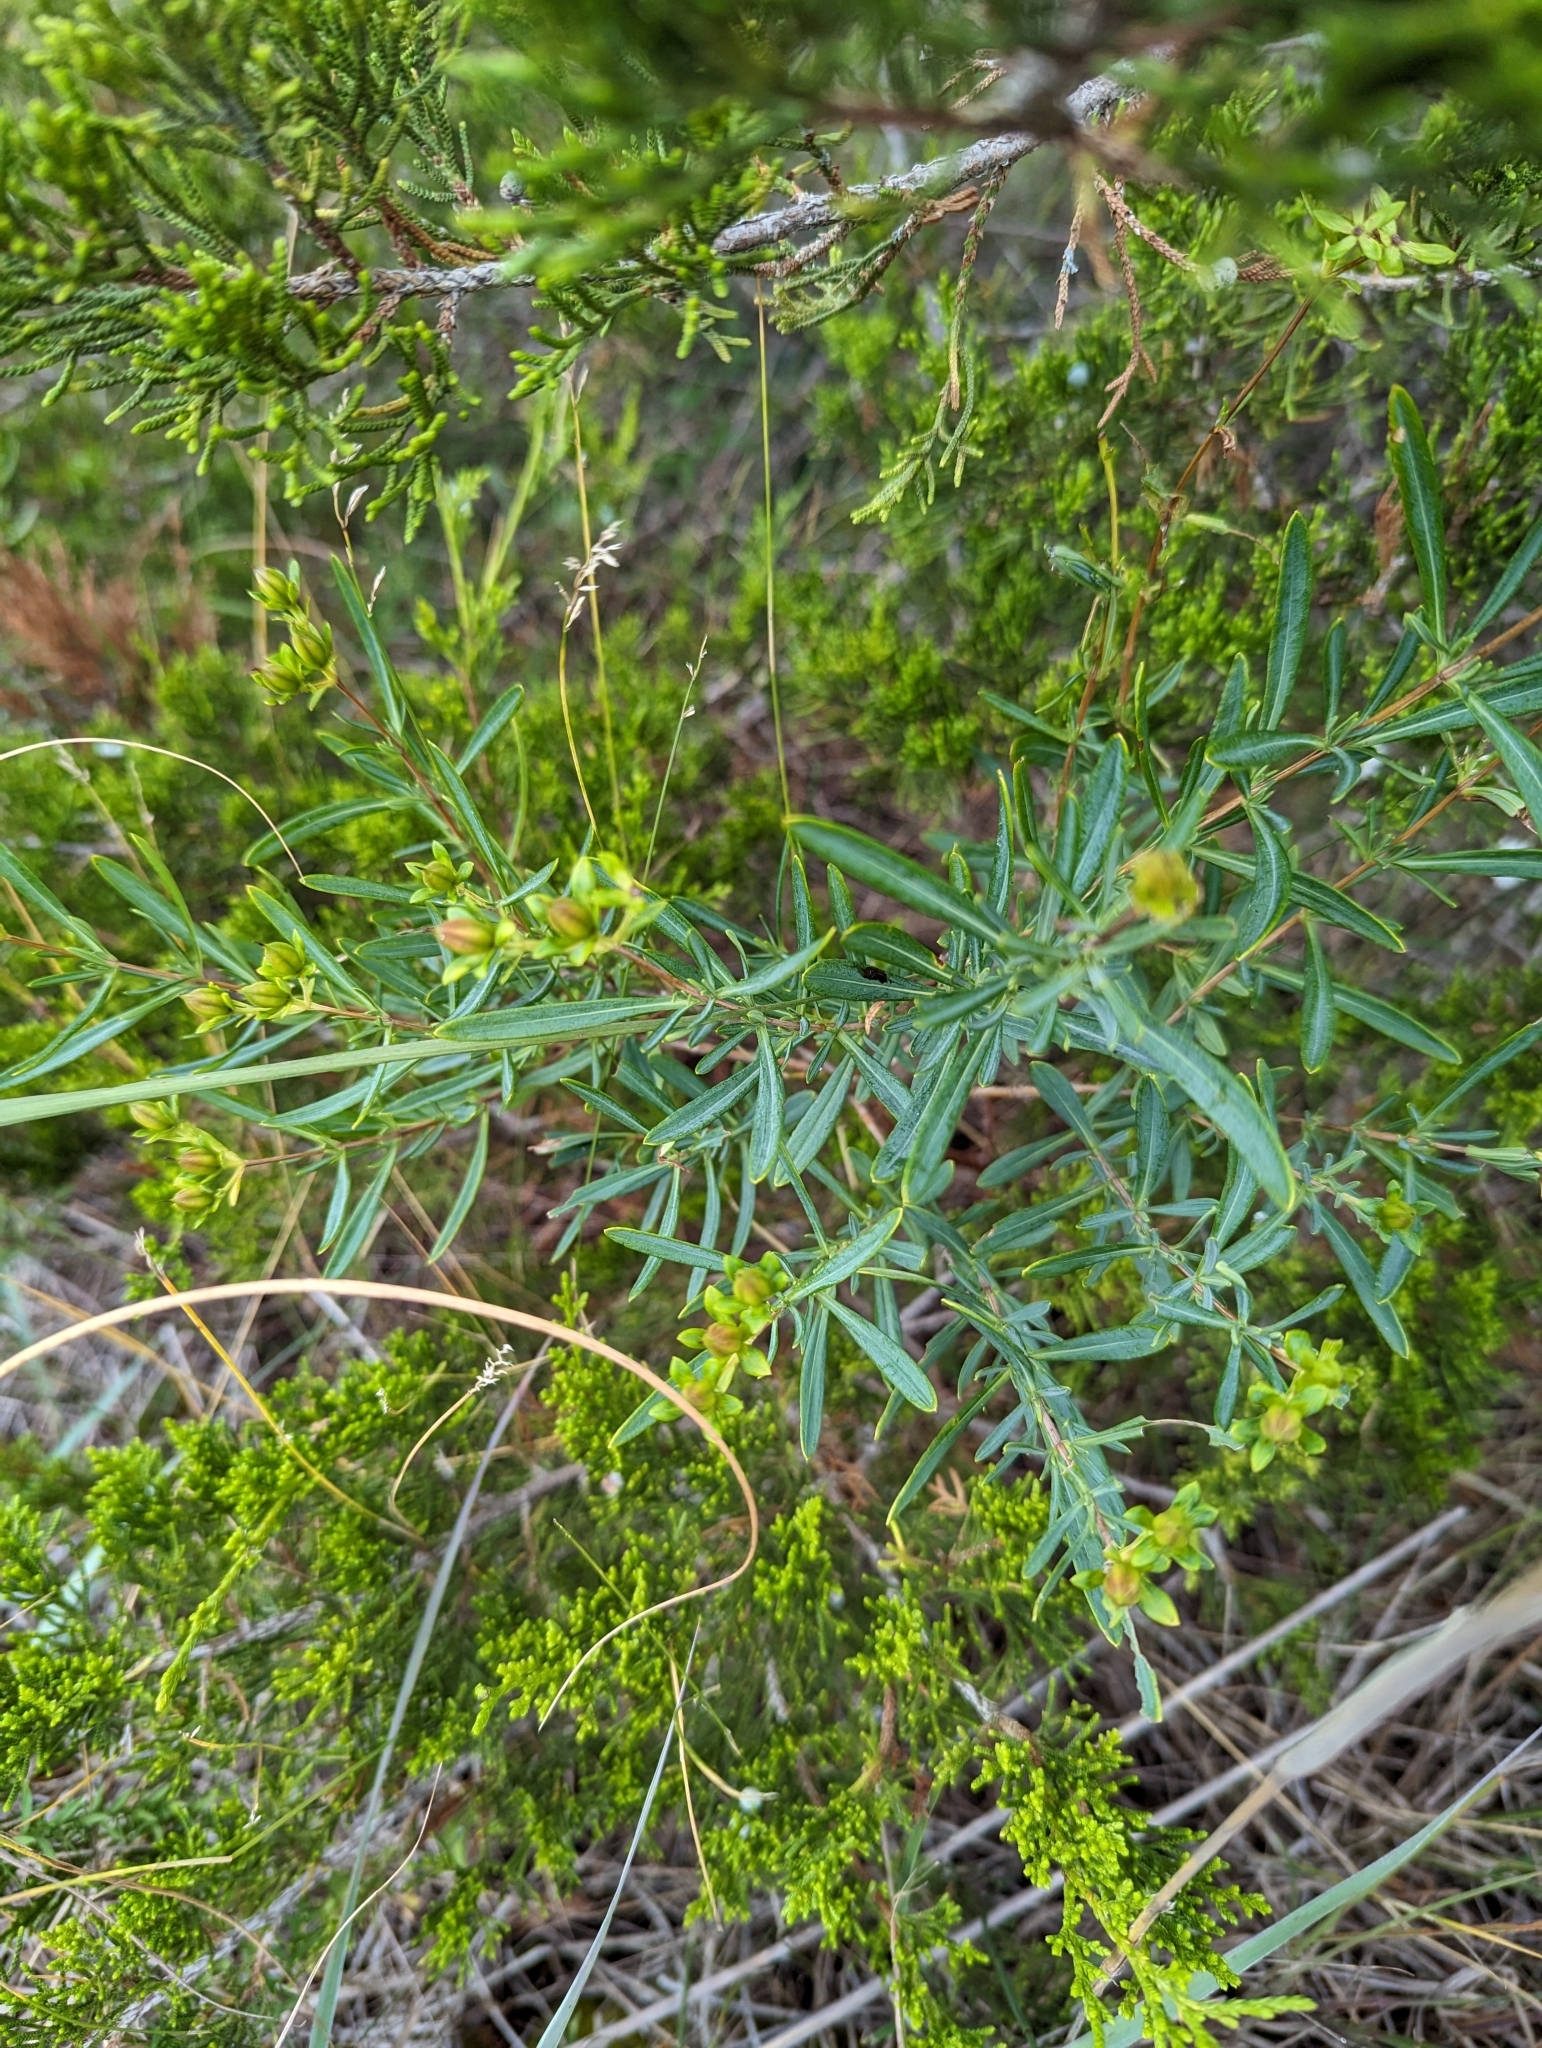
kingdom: Plantae
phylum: Tracheophyta
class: Magnoliopsida
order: Malpighiales
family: Hypericaceae
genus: Hypericum
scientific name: Hypericum kalmianum
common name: Kalm's st. john's-wort
